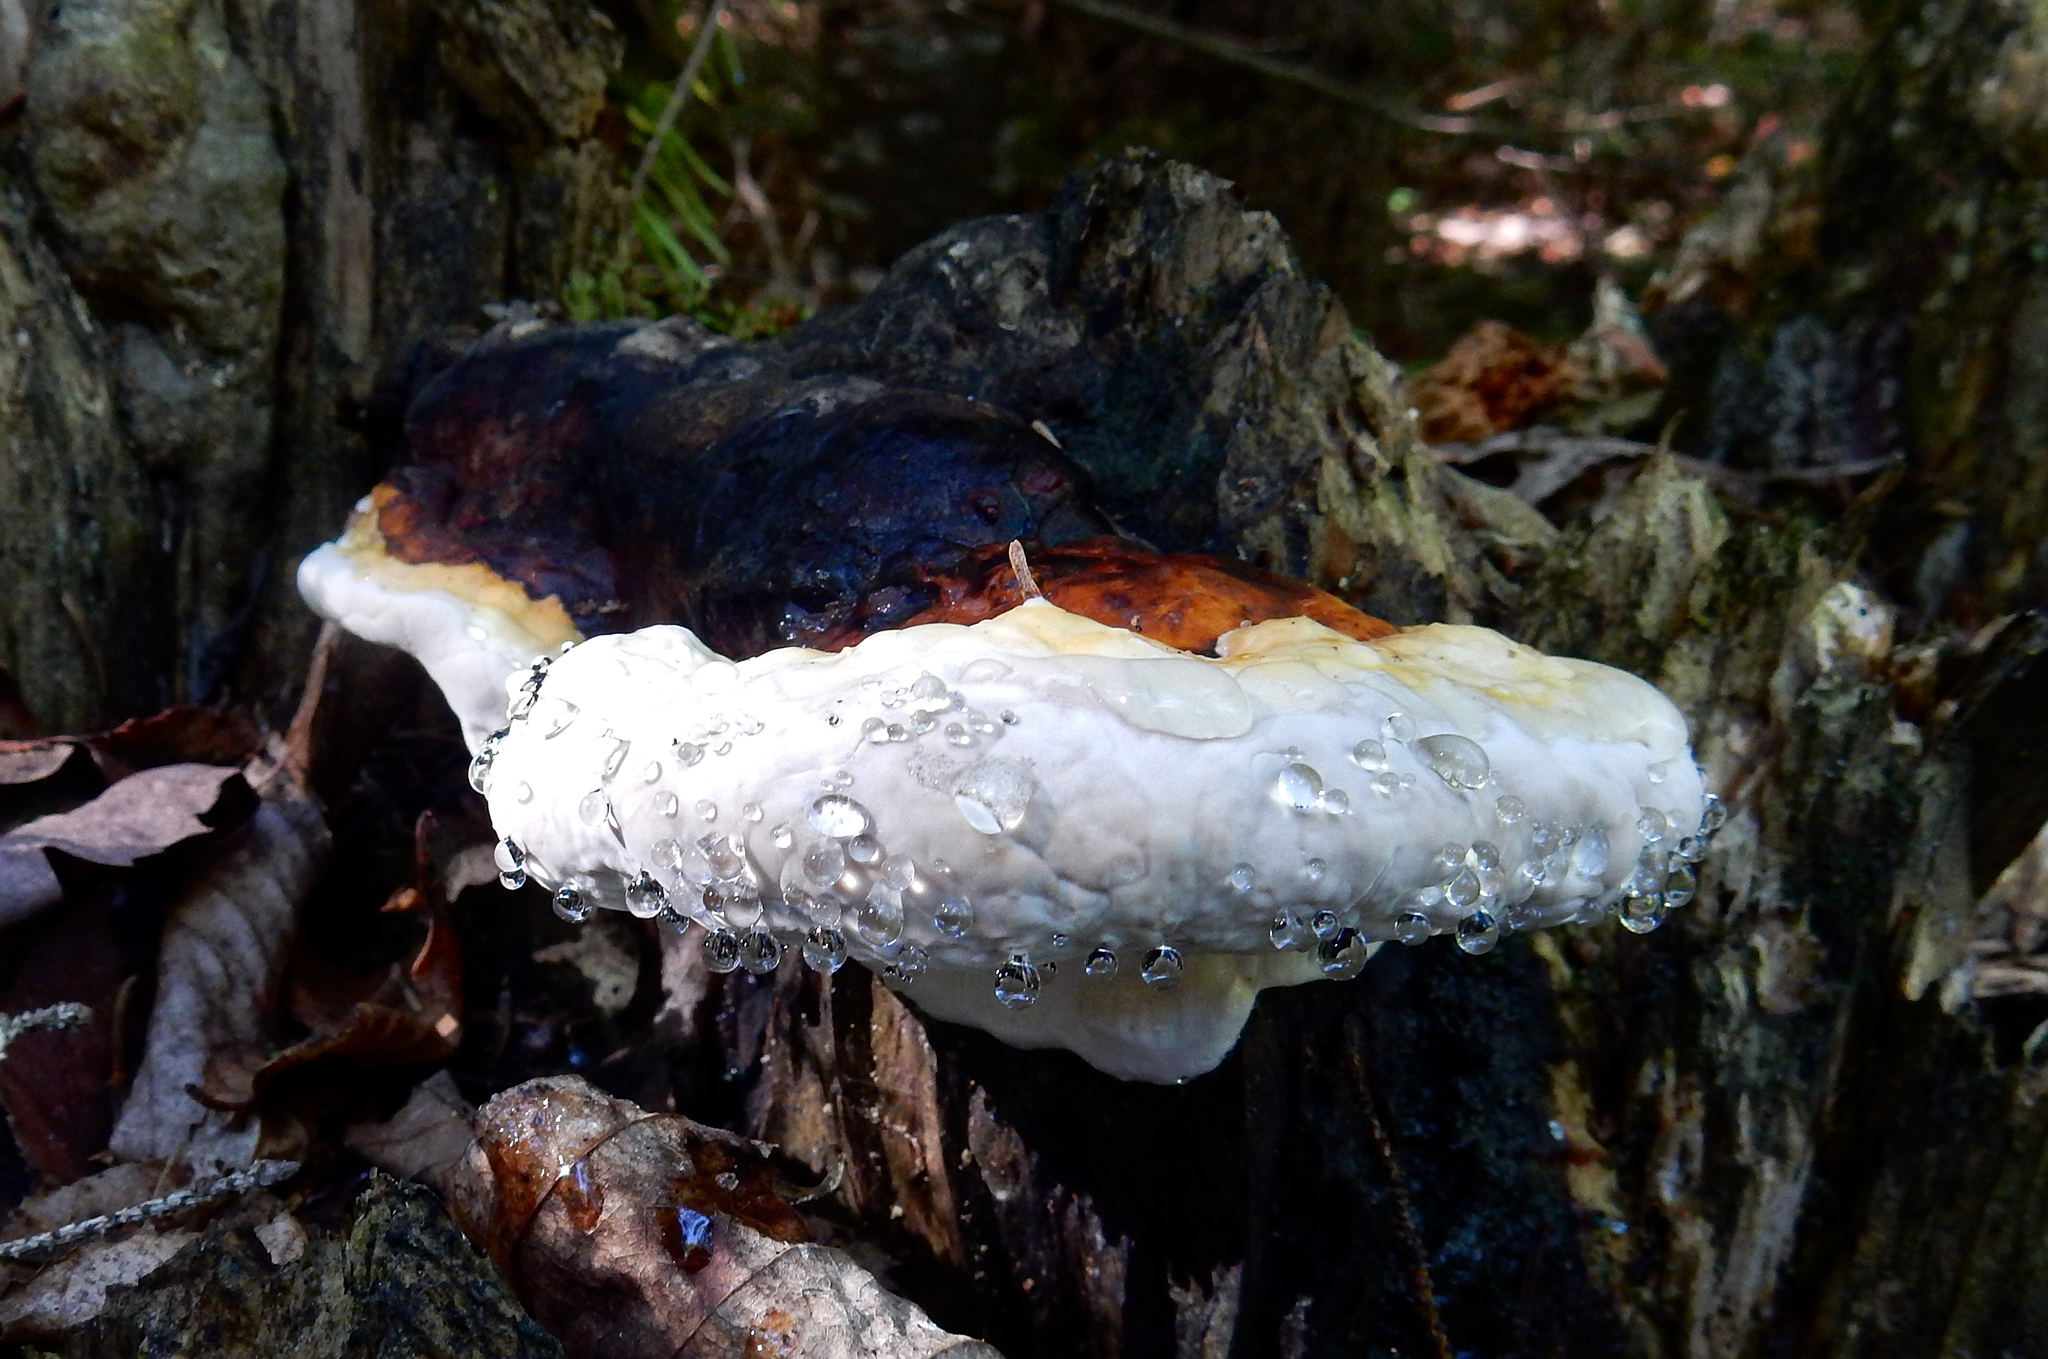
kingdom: Fungi
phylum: Basidiomycota
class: Agaricomycetes
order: Polyporales
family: Ischnodermataceae
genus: Ischnoderma
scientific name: Ischnoderma resinosum
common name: Resinous polypore
